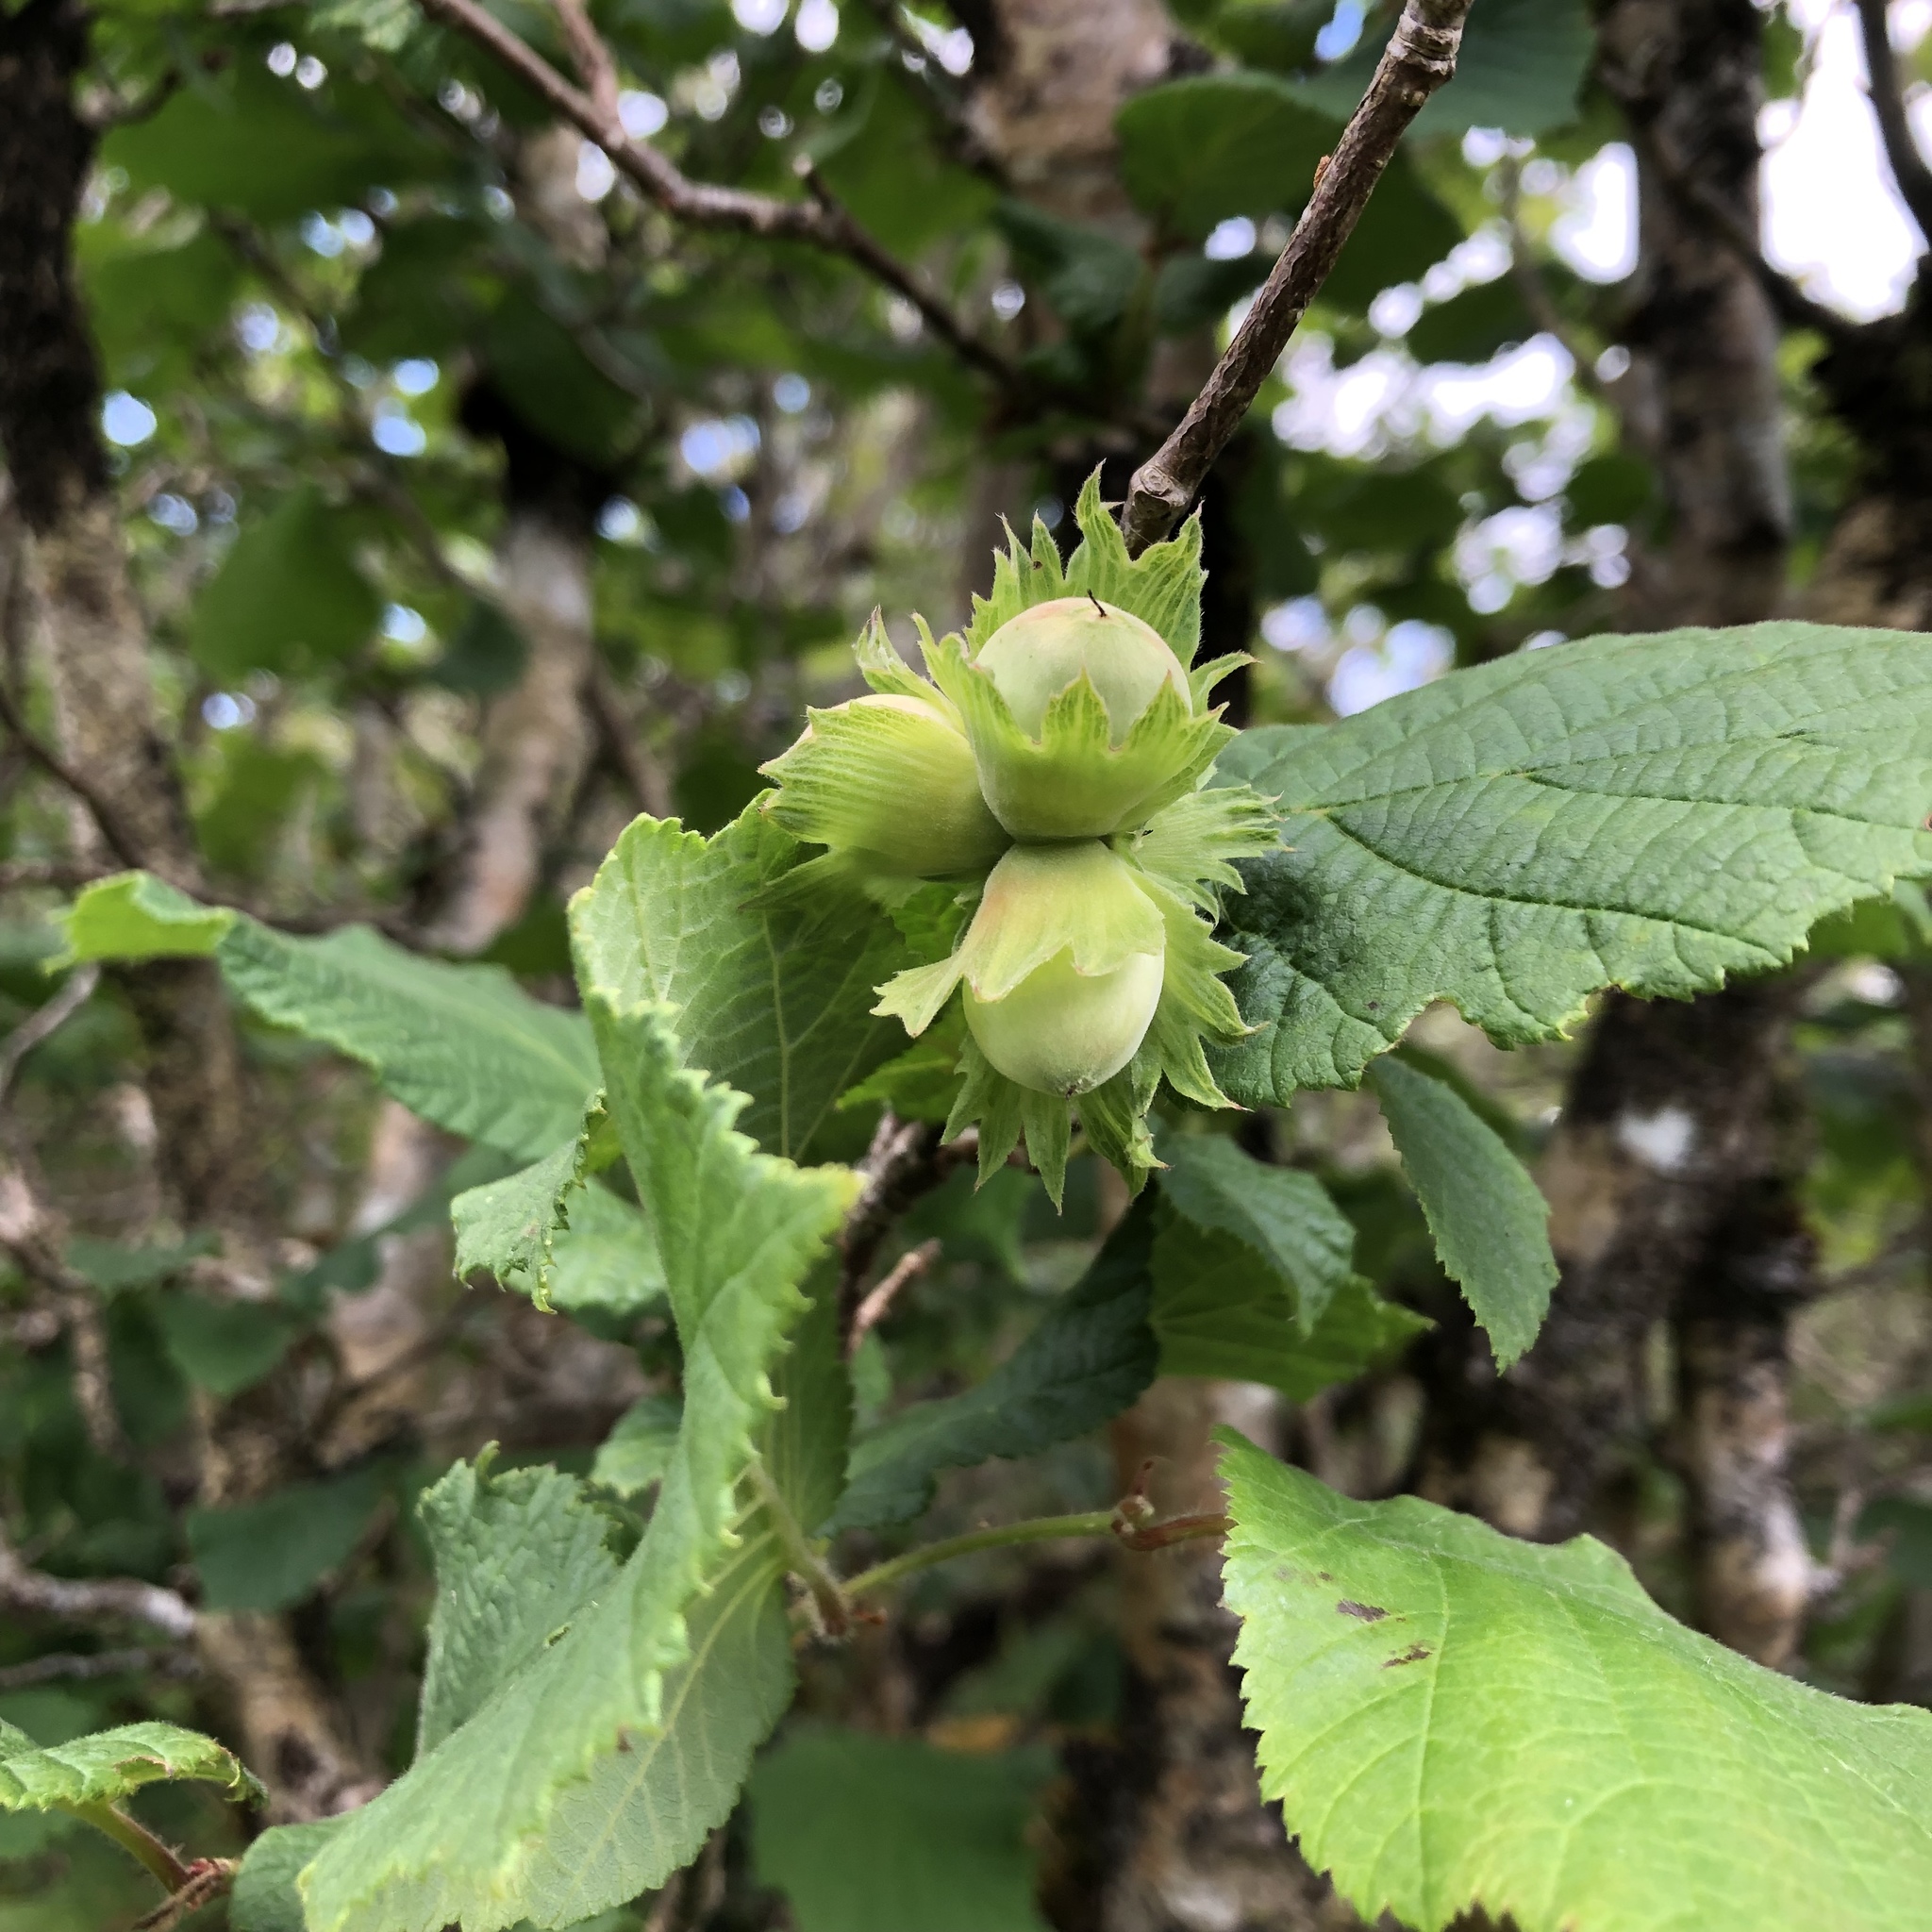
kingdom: Plantae
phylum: Tracheophyta
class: Magnoliopsida
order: Fagales
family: Betulaceae
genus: Corylus
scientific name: Corylus avellana
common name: European hazel
